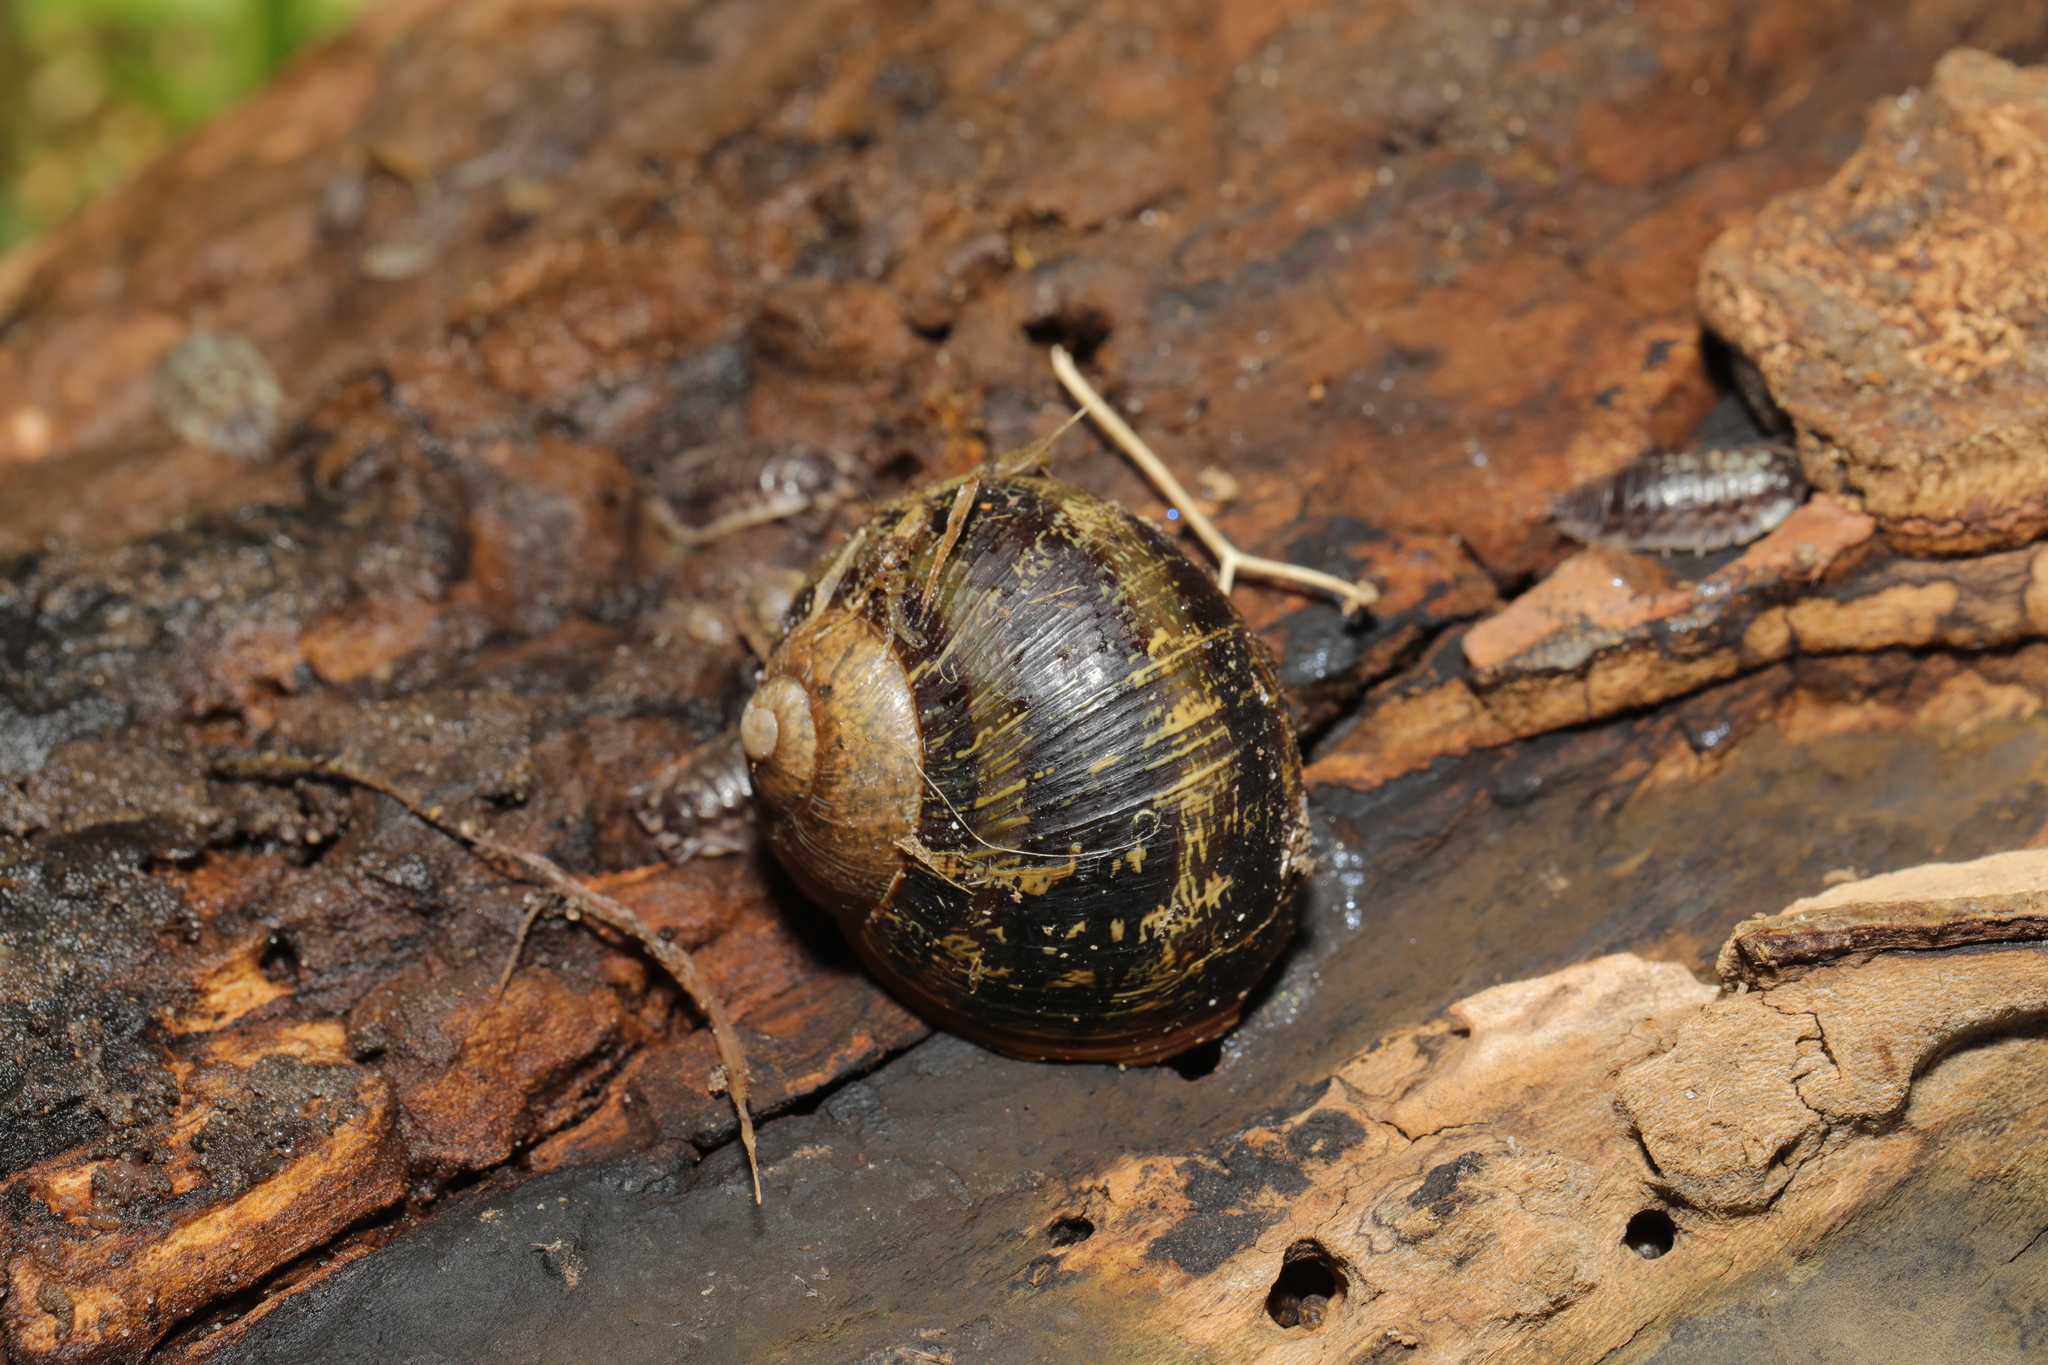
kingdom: Animalia
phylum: Mollusca
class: Gastropoda
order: Stylommatophora
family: Helicidae
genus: Cornu
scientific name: Cornu aspersum
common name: Brown garden snail
